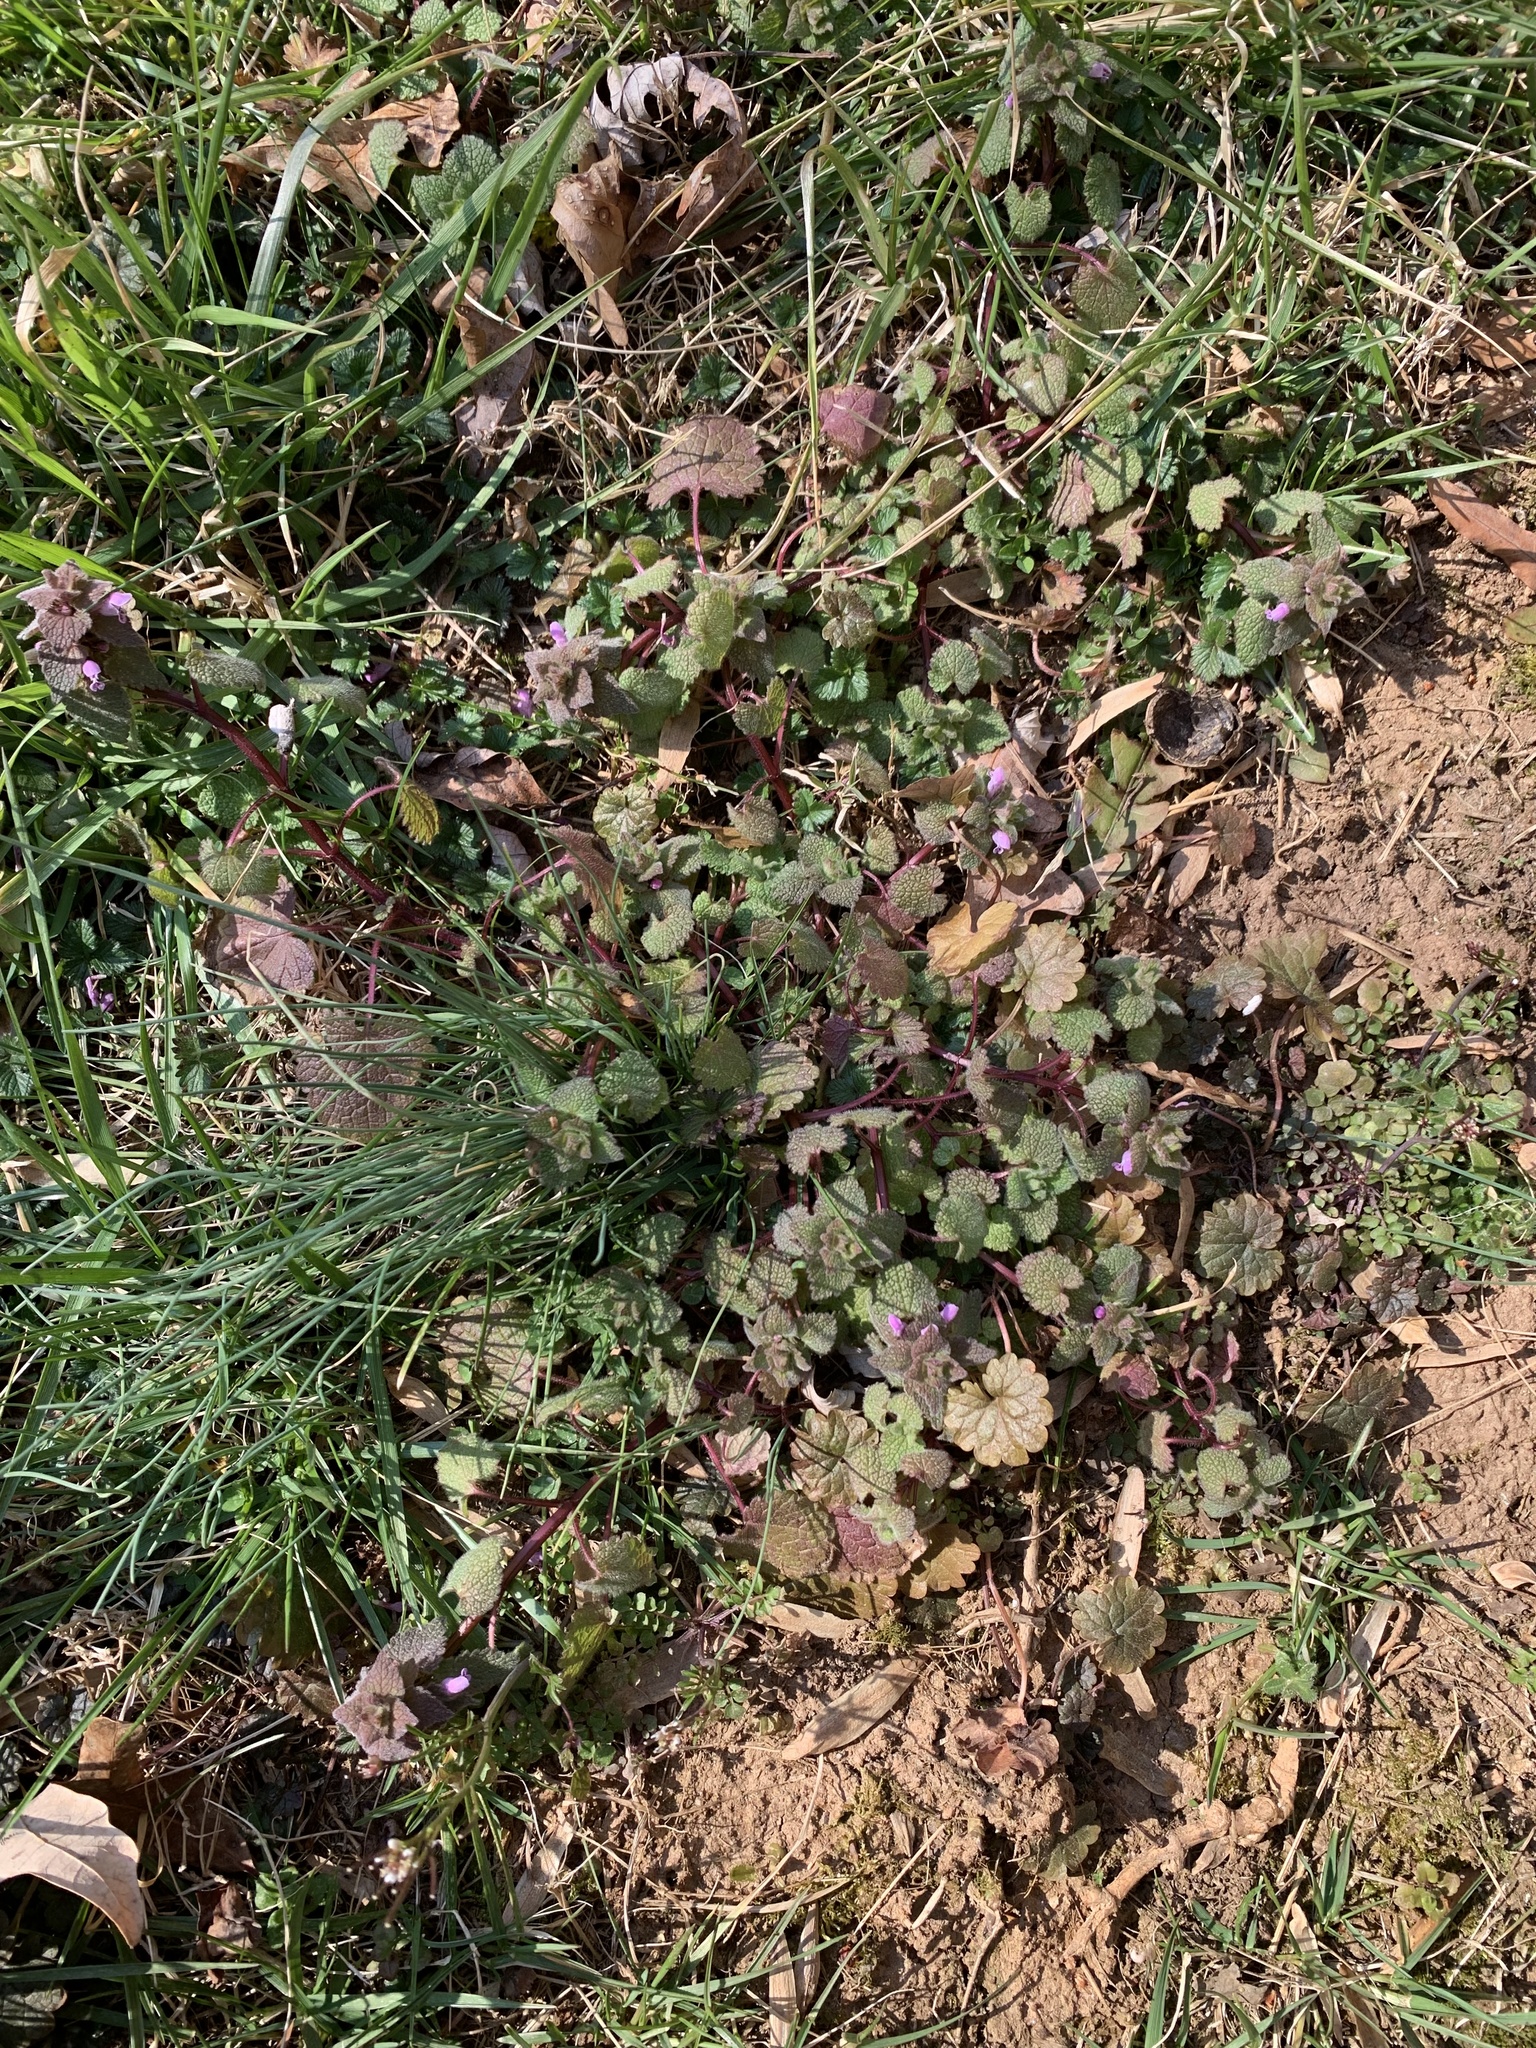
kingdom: Plantae
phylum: Tracheophyta
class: Magnoliopsida
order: Lamiales
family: Lamiaceae
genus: Lamium
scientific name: Lamium purpureum
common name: Red dead-nettle
